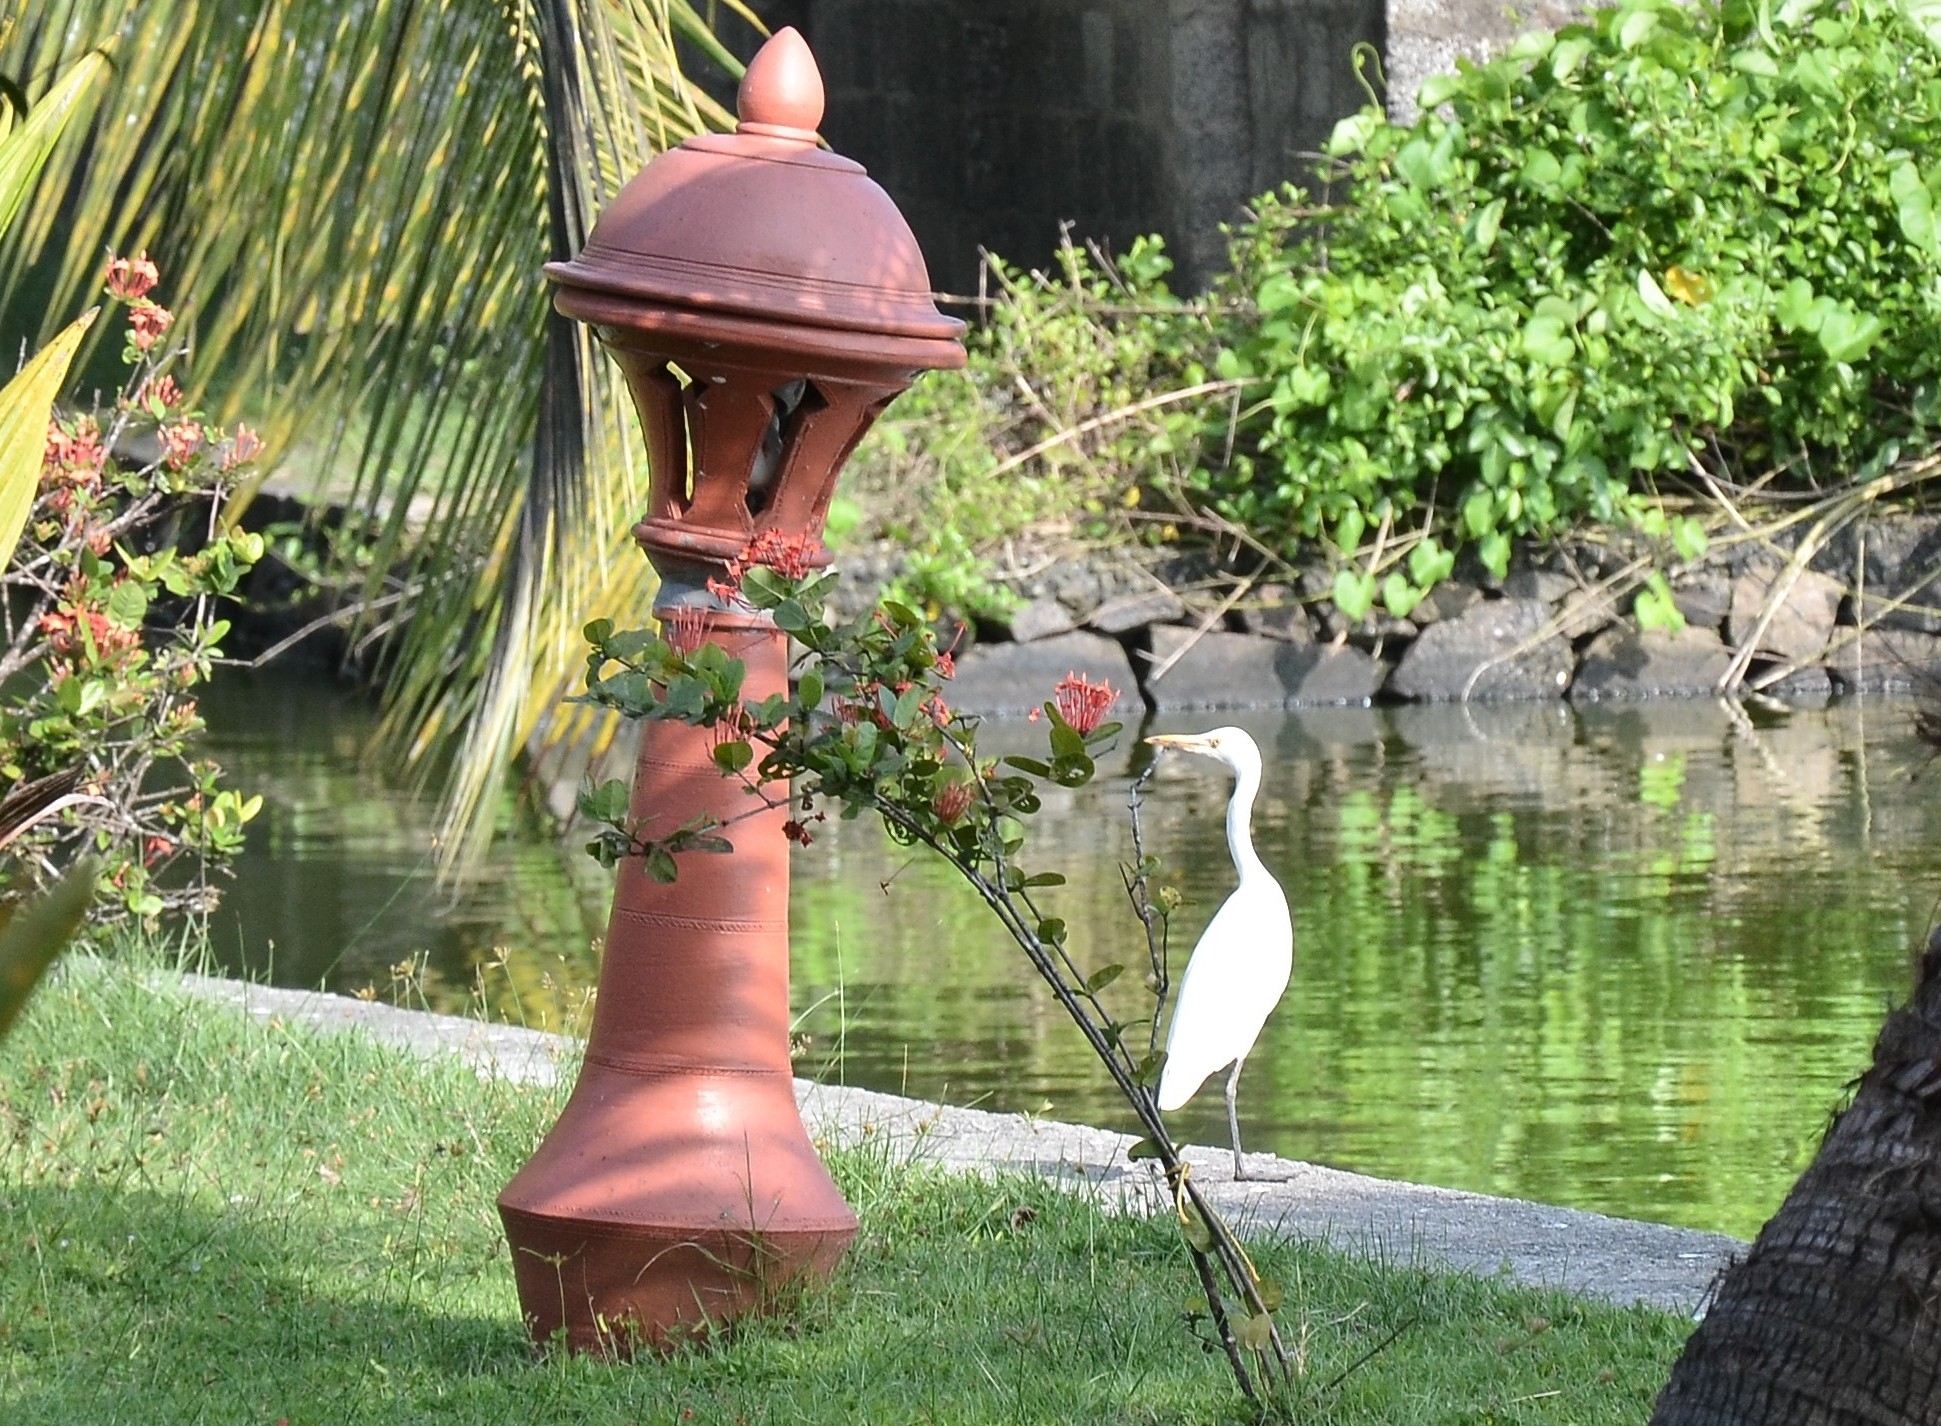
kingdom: Animalia
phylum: Chordata
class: Aves
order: Pelecaniformes
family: Ardeidae
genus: Bubulcus
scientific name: Bubulcus coromandus
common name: Eastern cattle egret
